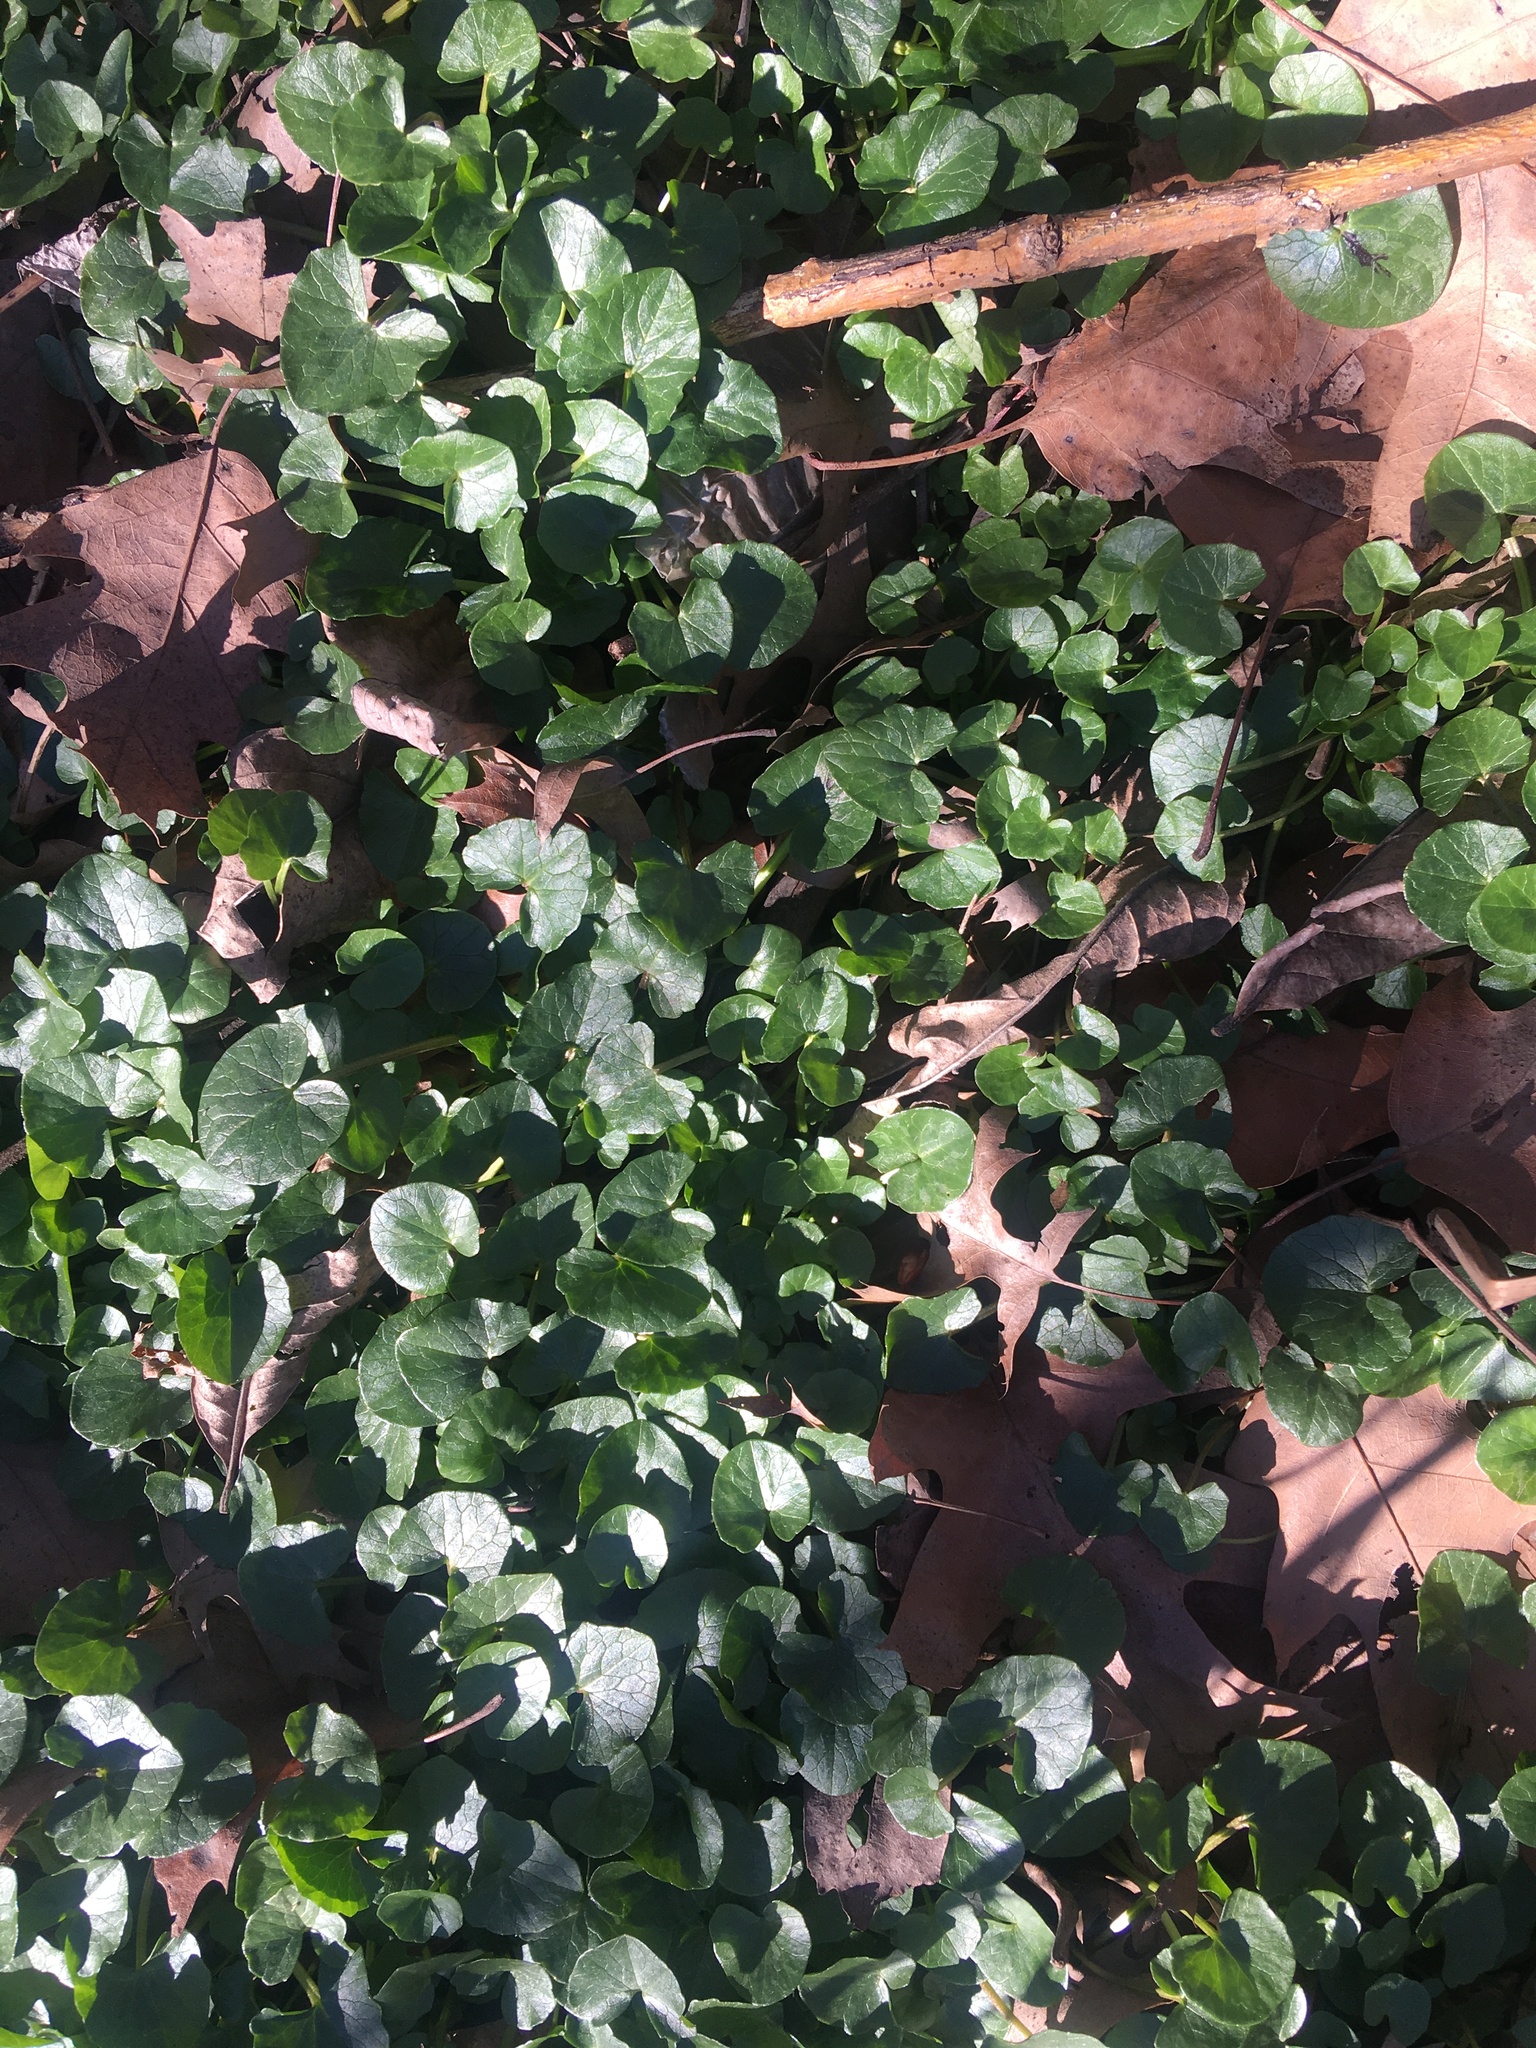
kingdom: Plantae
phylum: Tracheophyta
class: Magnoliopsida
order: Ranunculales
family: Ranunculaceae
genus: Ficaria
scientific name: Ficaria verna
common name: Lesser celandine
